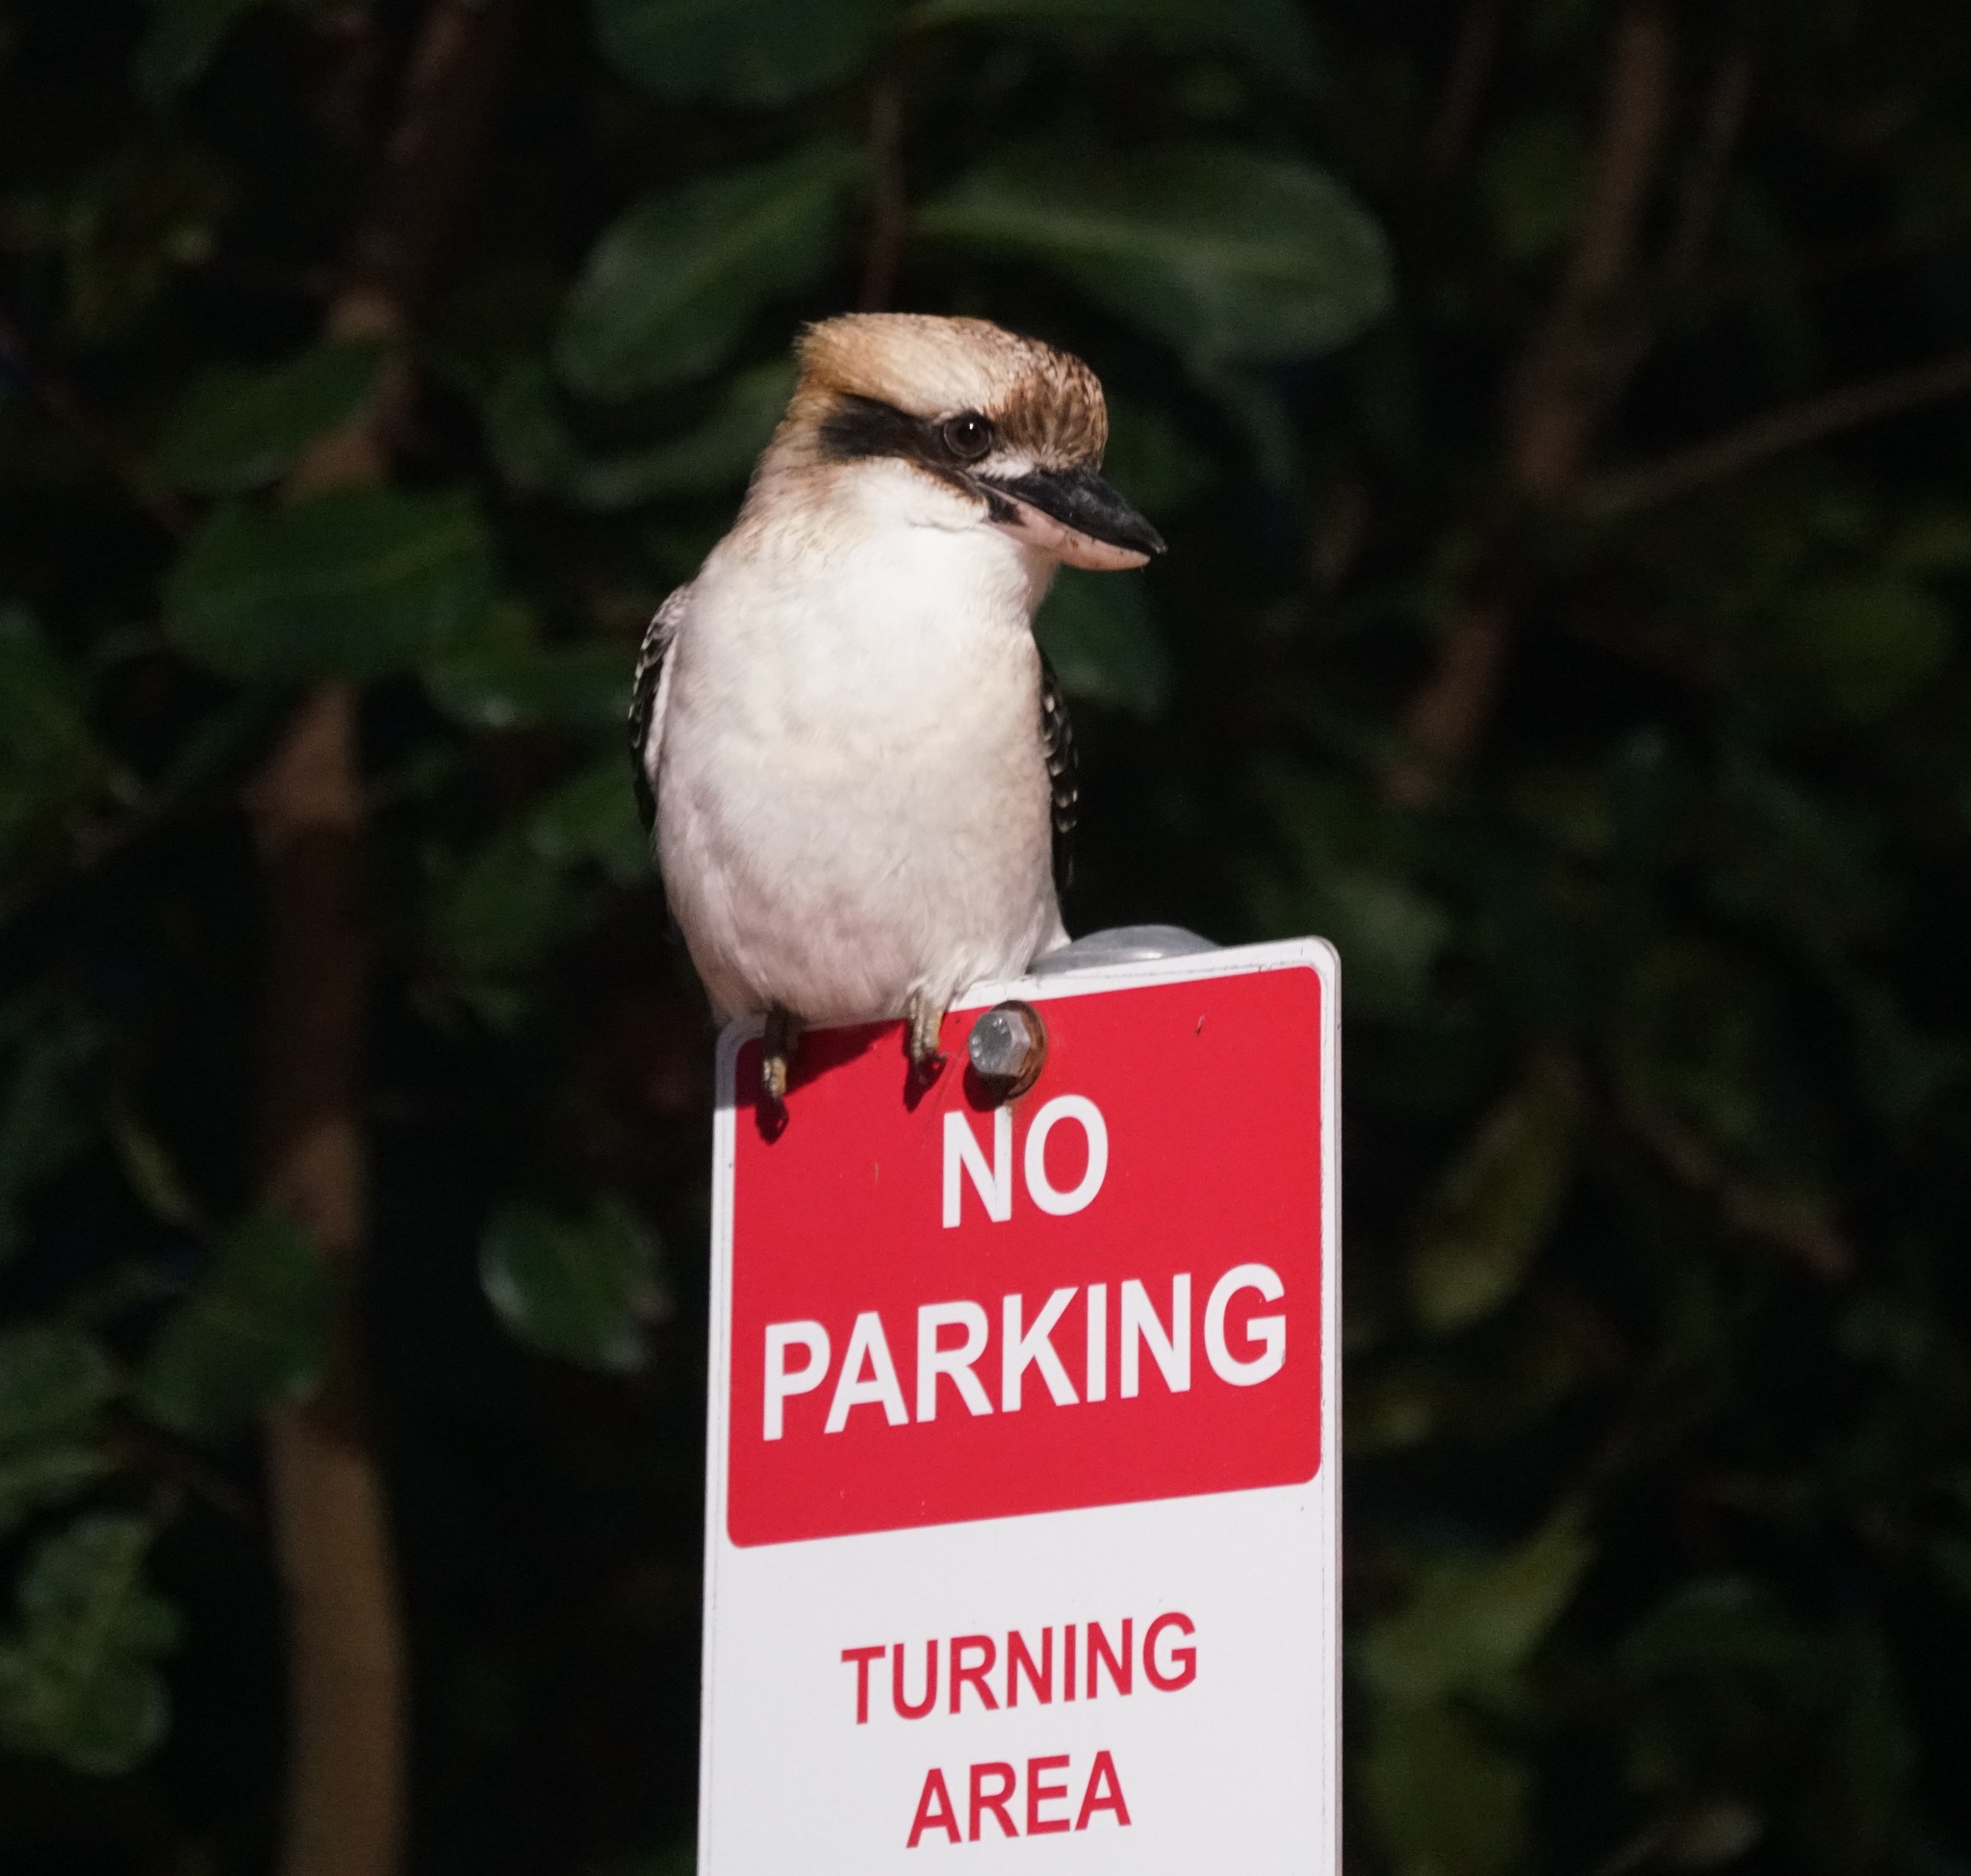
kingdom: Animalia
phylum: Chordata
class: Aves
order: Coraciiformes
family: Alcedinidae
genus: Dacelo
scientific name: Dacelo novaeguineae
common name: Laughing kookaburra
